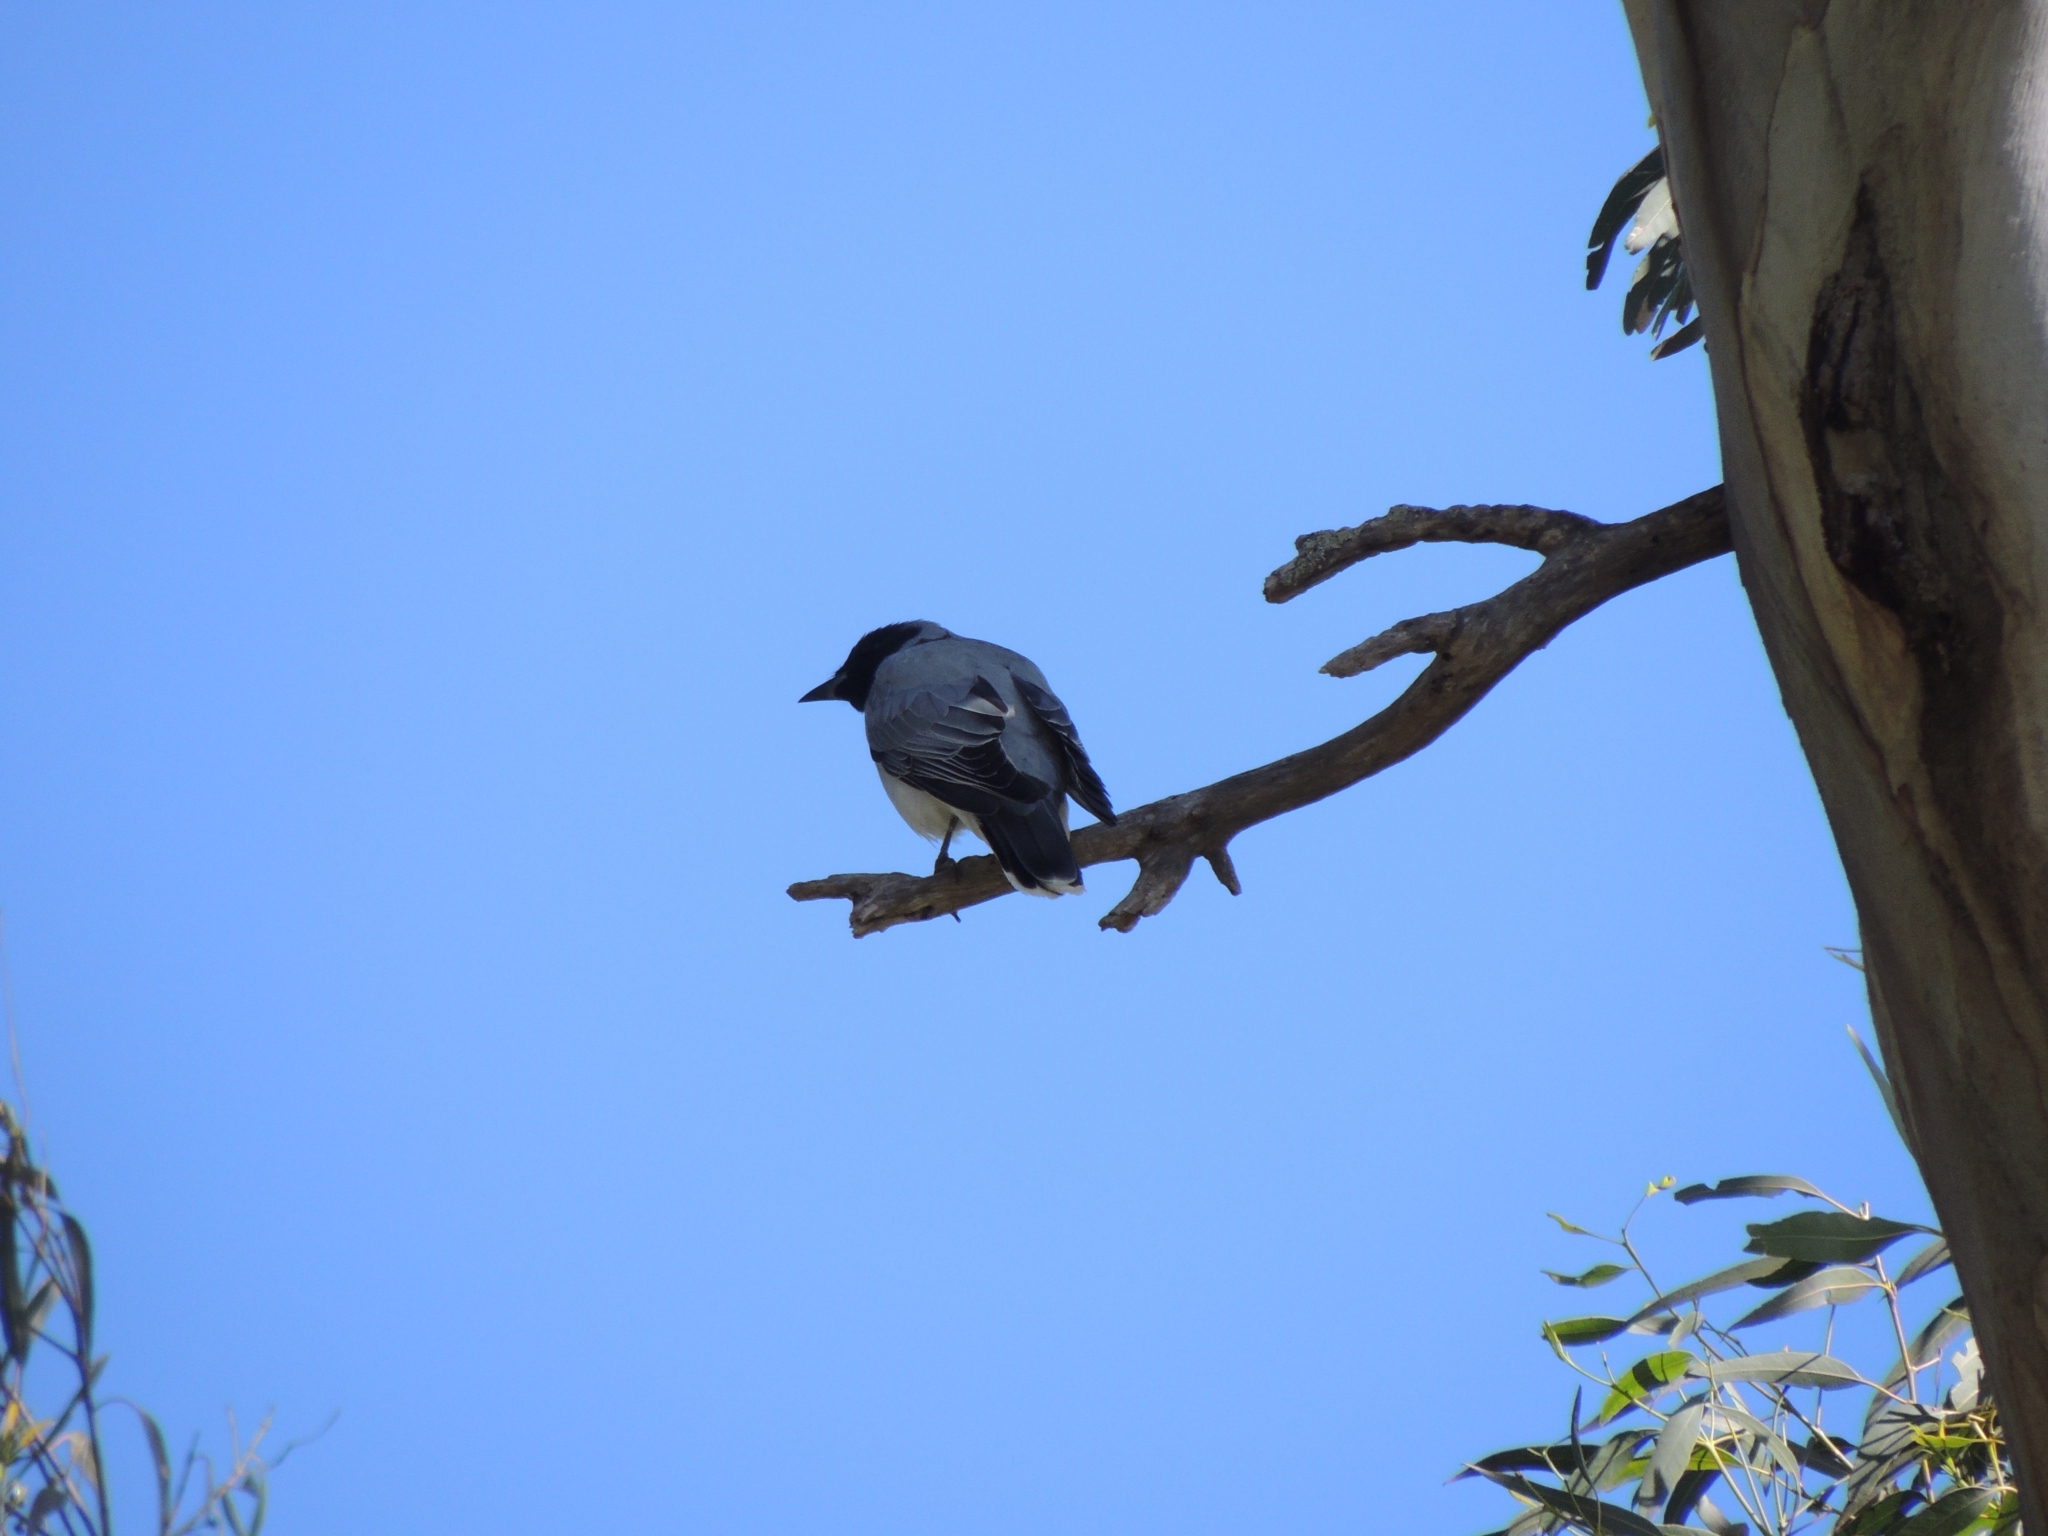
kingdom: Animalia
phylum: Chordata
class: Aves
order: Passeriformes
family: Campephagidae
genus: Coracina
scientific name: Coracina novaehollandiae
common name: Black-faced cuckooshrike
